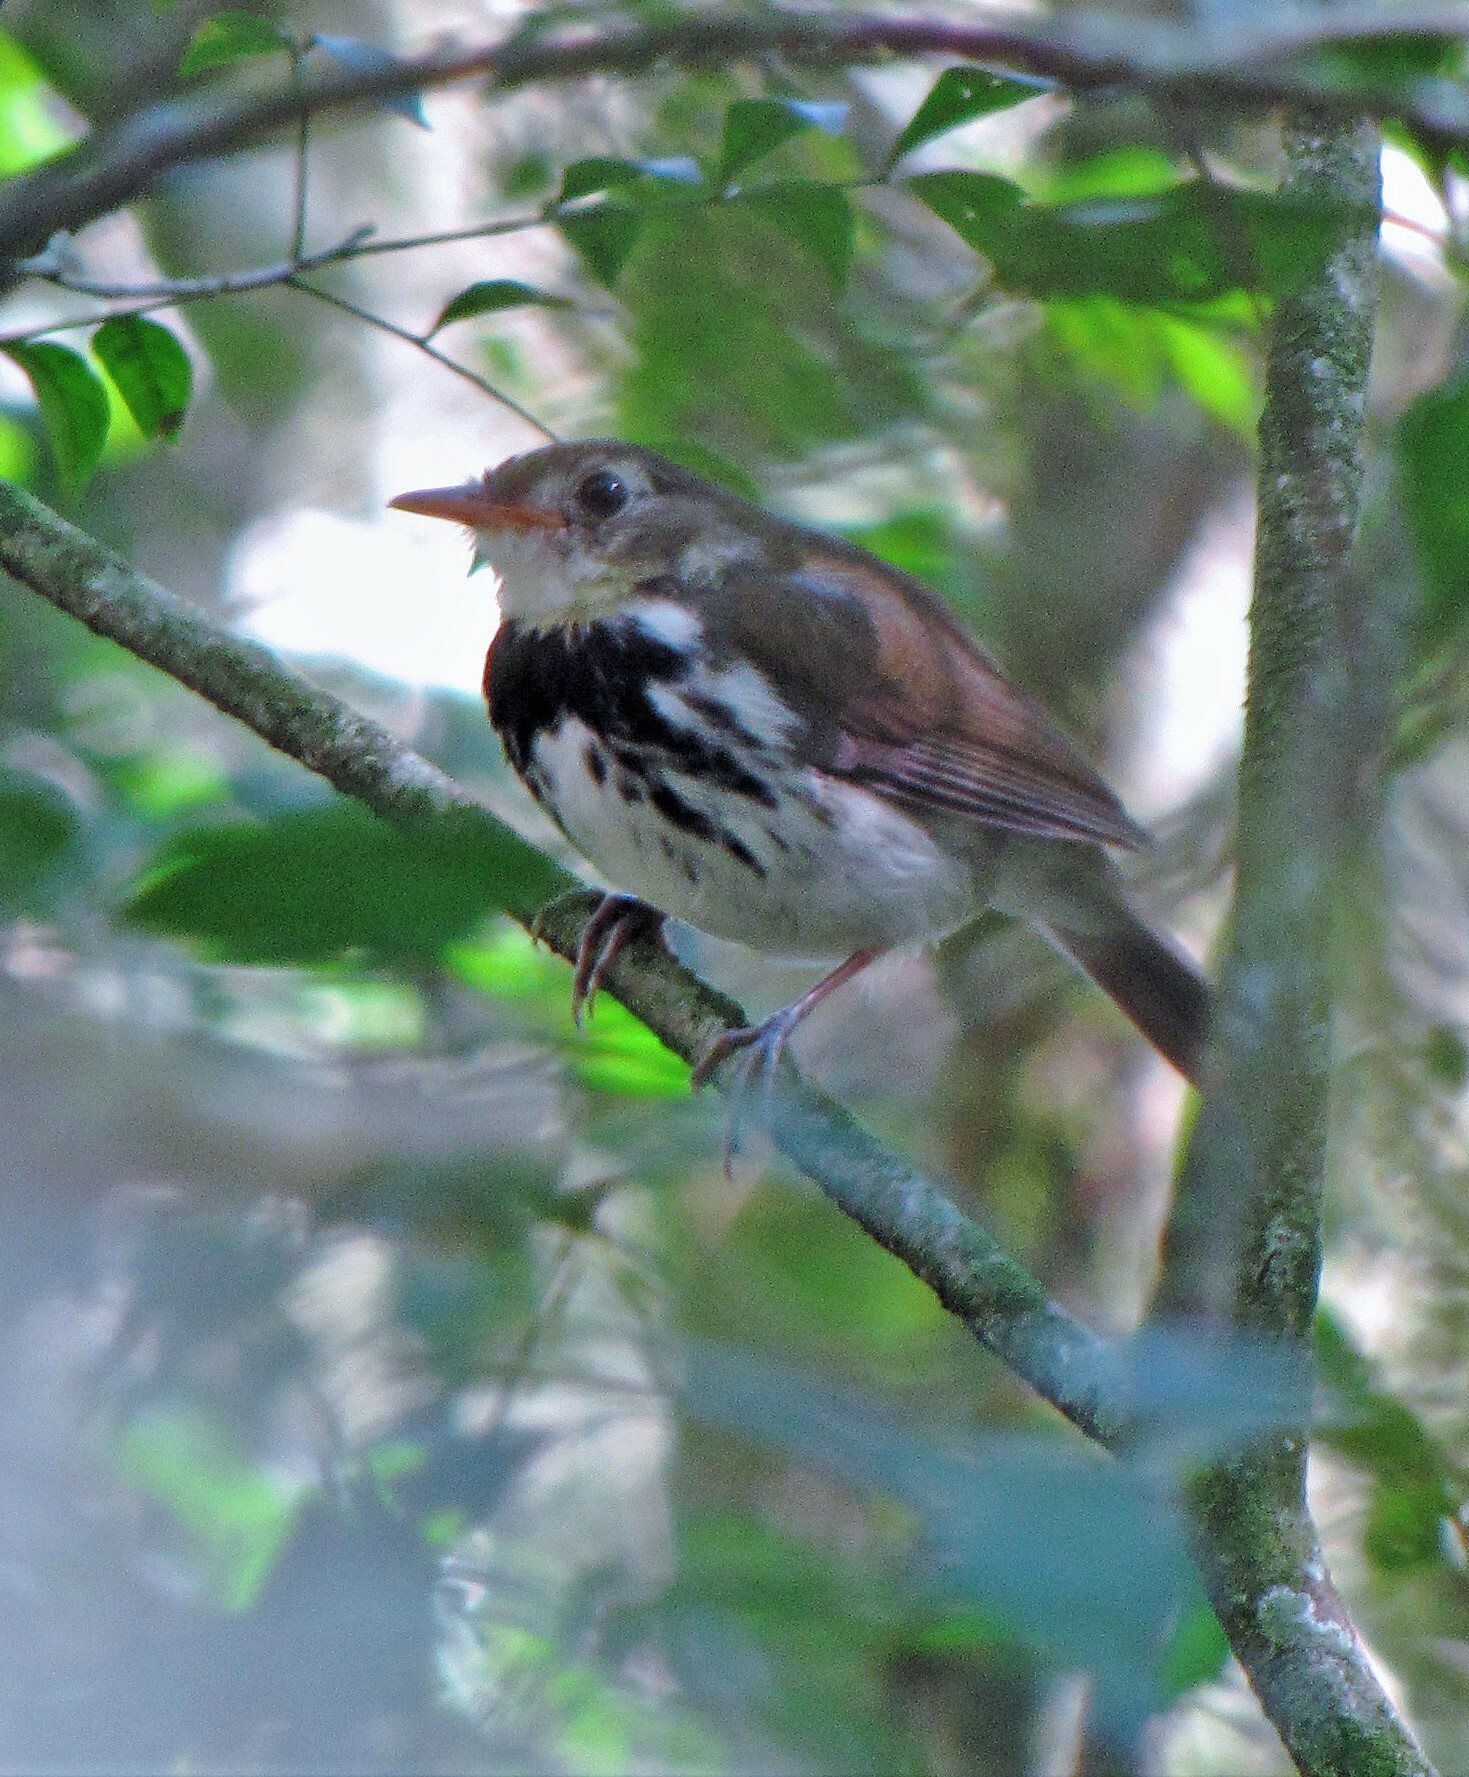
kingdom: Animalia
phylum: Chordata
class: Aves
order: Passeriformes
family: Tyrannidae
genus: Corythopis
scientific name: Corythopis delalandi
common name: Southern antpipit
